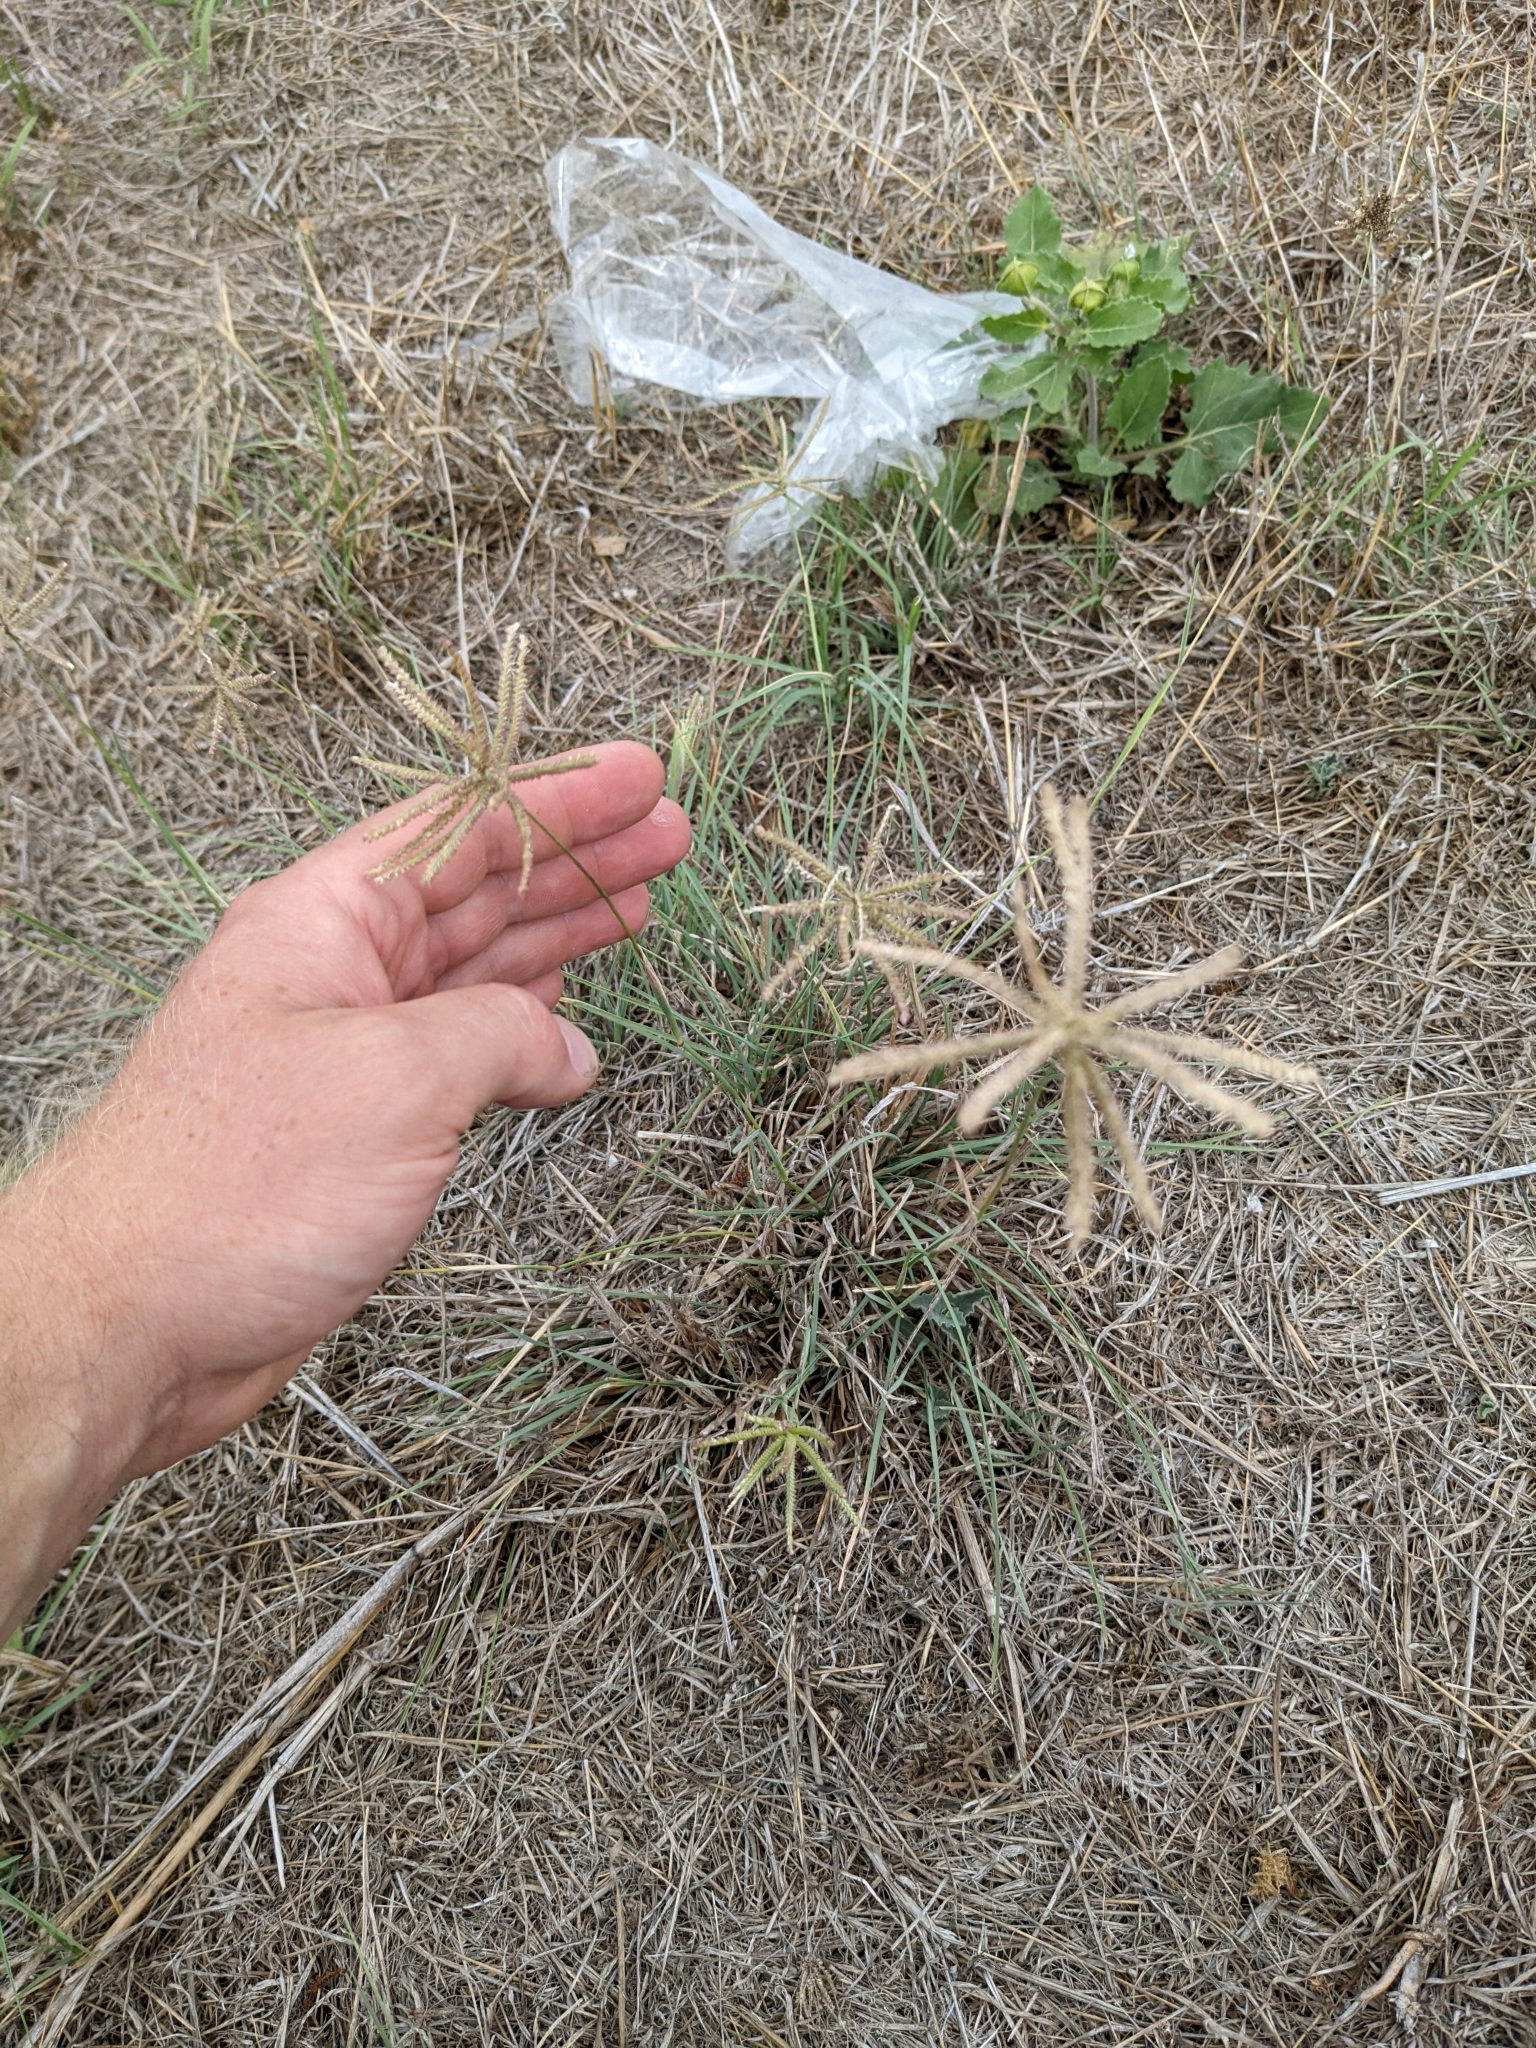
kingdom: Plantae
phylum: Tracheophyta
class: Liliopsida
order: Poales
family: Poaceae
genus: Chloris
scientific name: Chloris cucullata
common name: Hooded windmill grass
